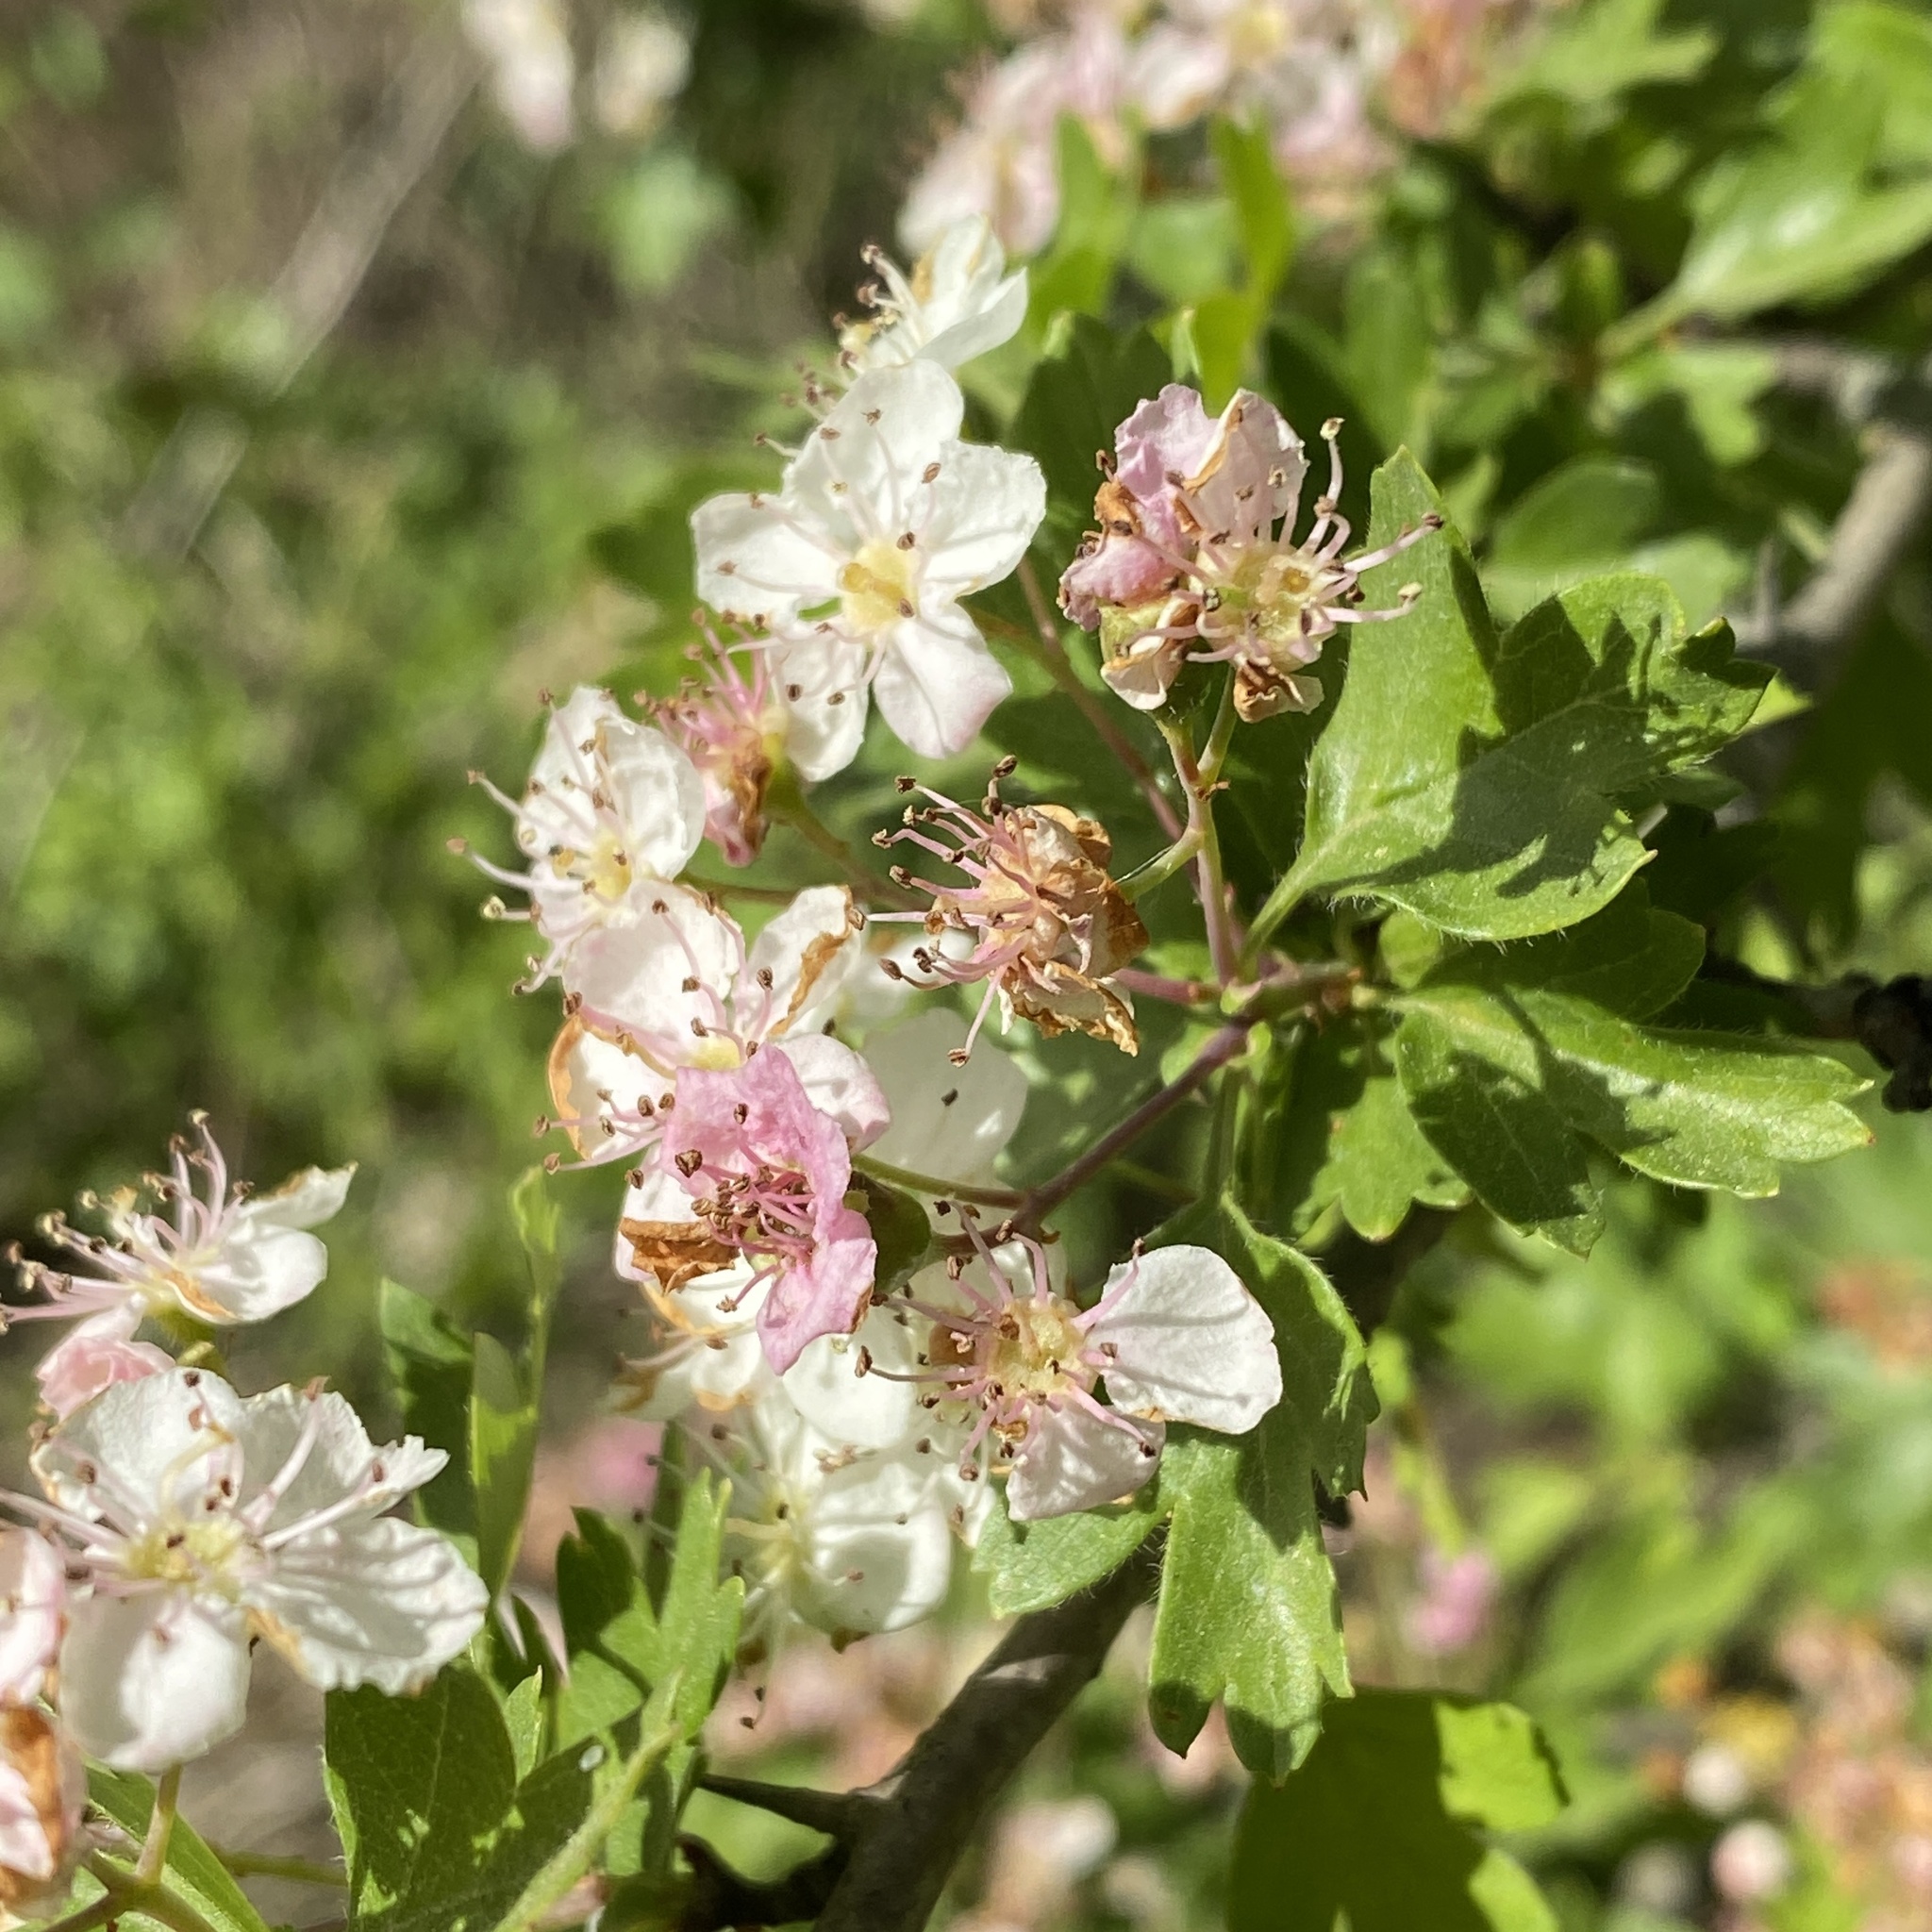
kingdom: Plantae
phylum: Tracheophyta
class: Magnoliopsida
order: Rosales
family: Rosaceae
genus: Crataegus
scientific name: Crataegus monogyna
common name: Hawthorn
